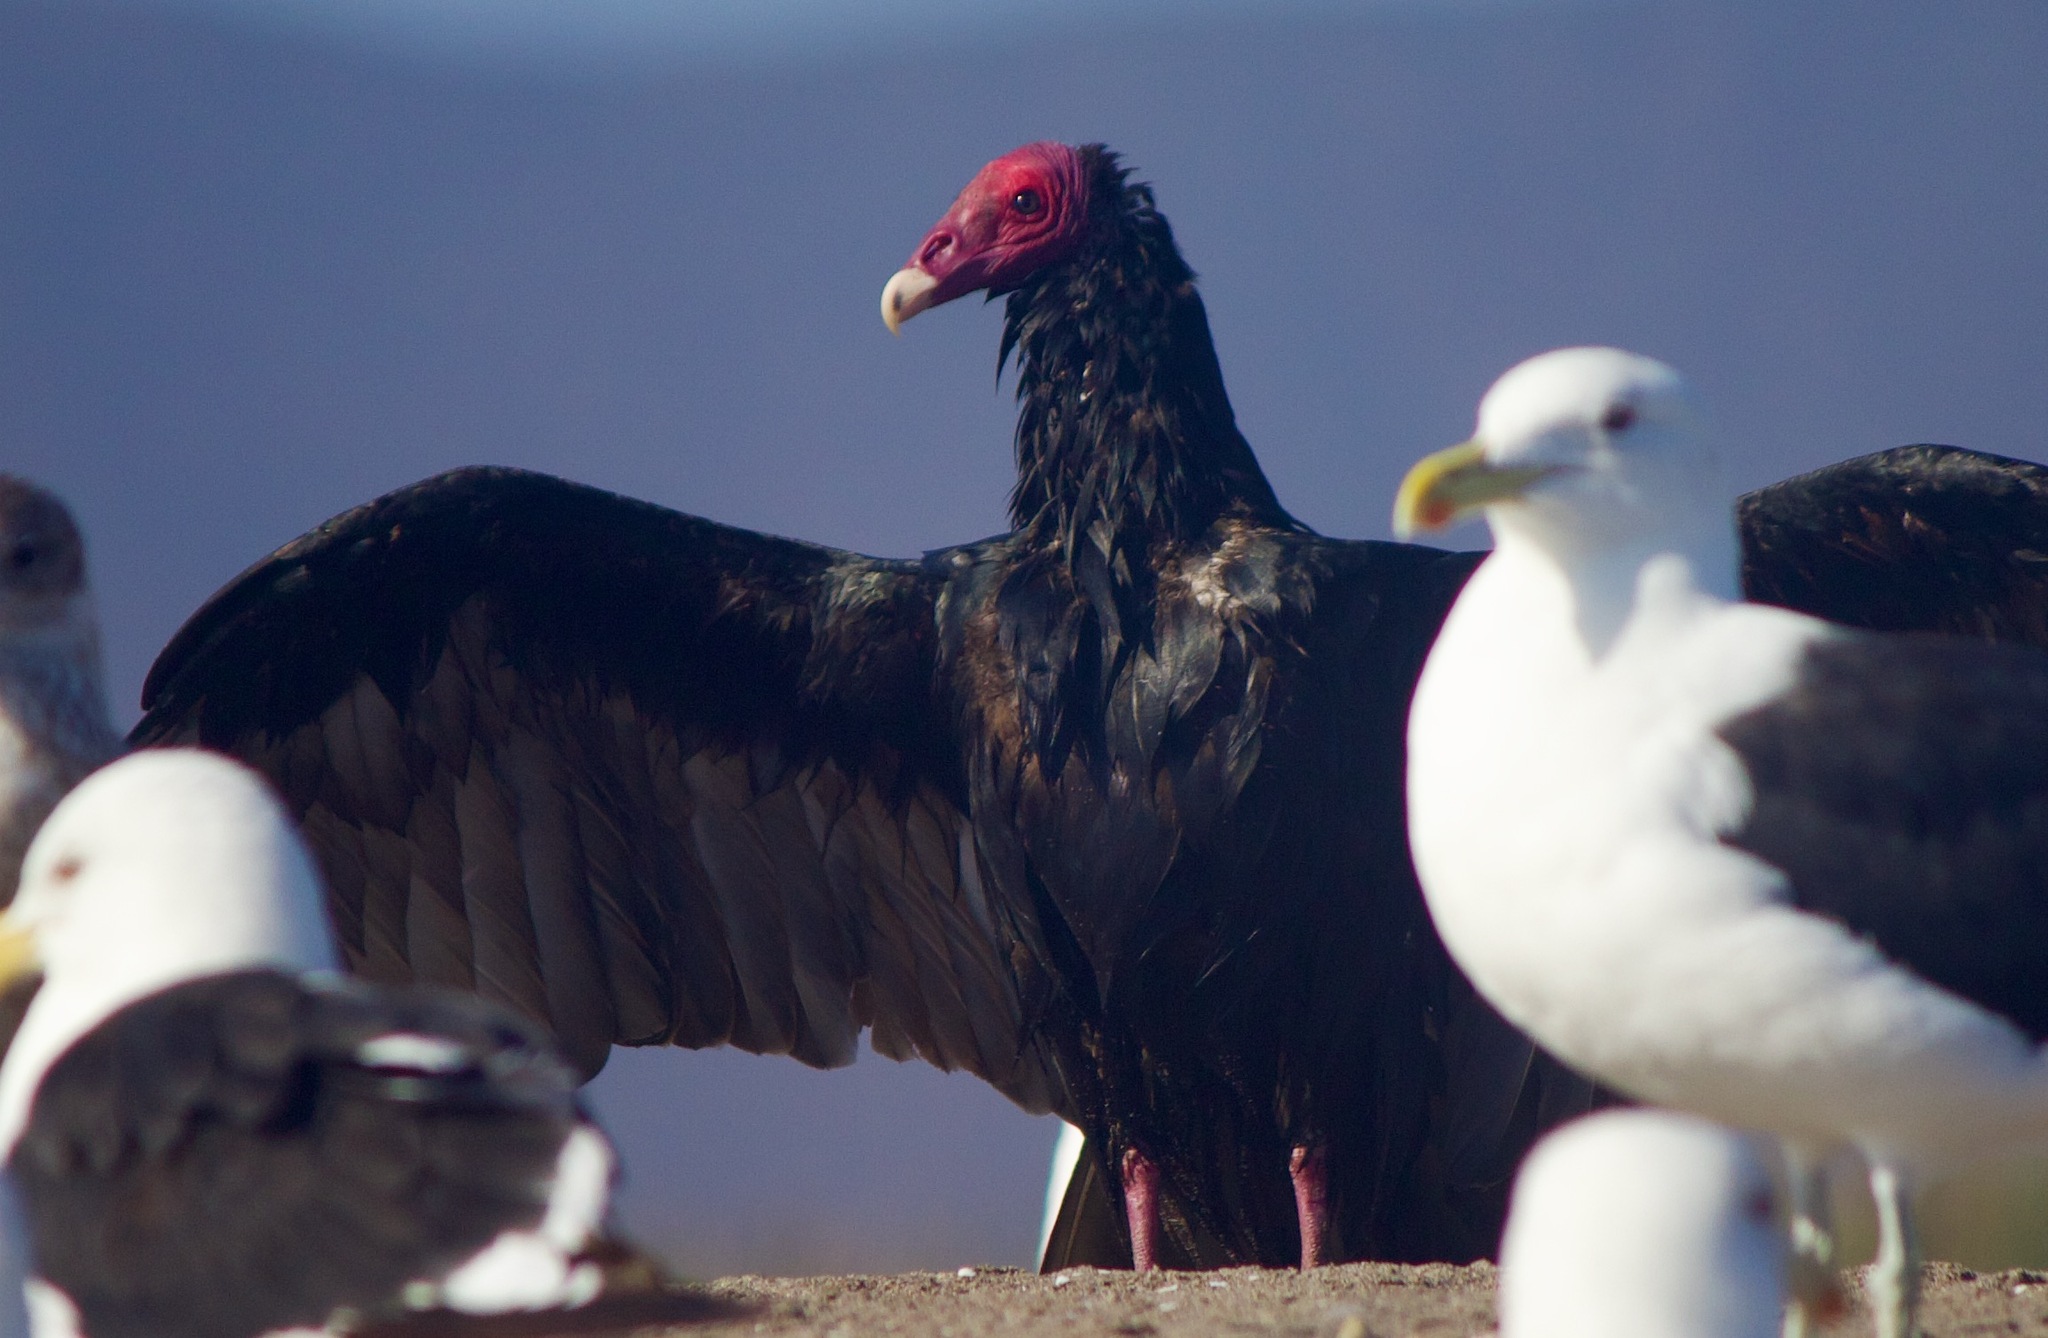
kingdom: Animalia
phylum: Chordata
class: Aves
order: Accipitriformes
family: Cathartidae
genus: Cathartes
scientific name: Cathartes aura
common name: Turkey vulture
